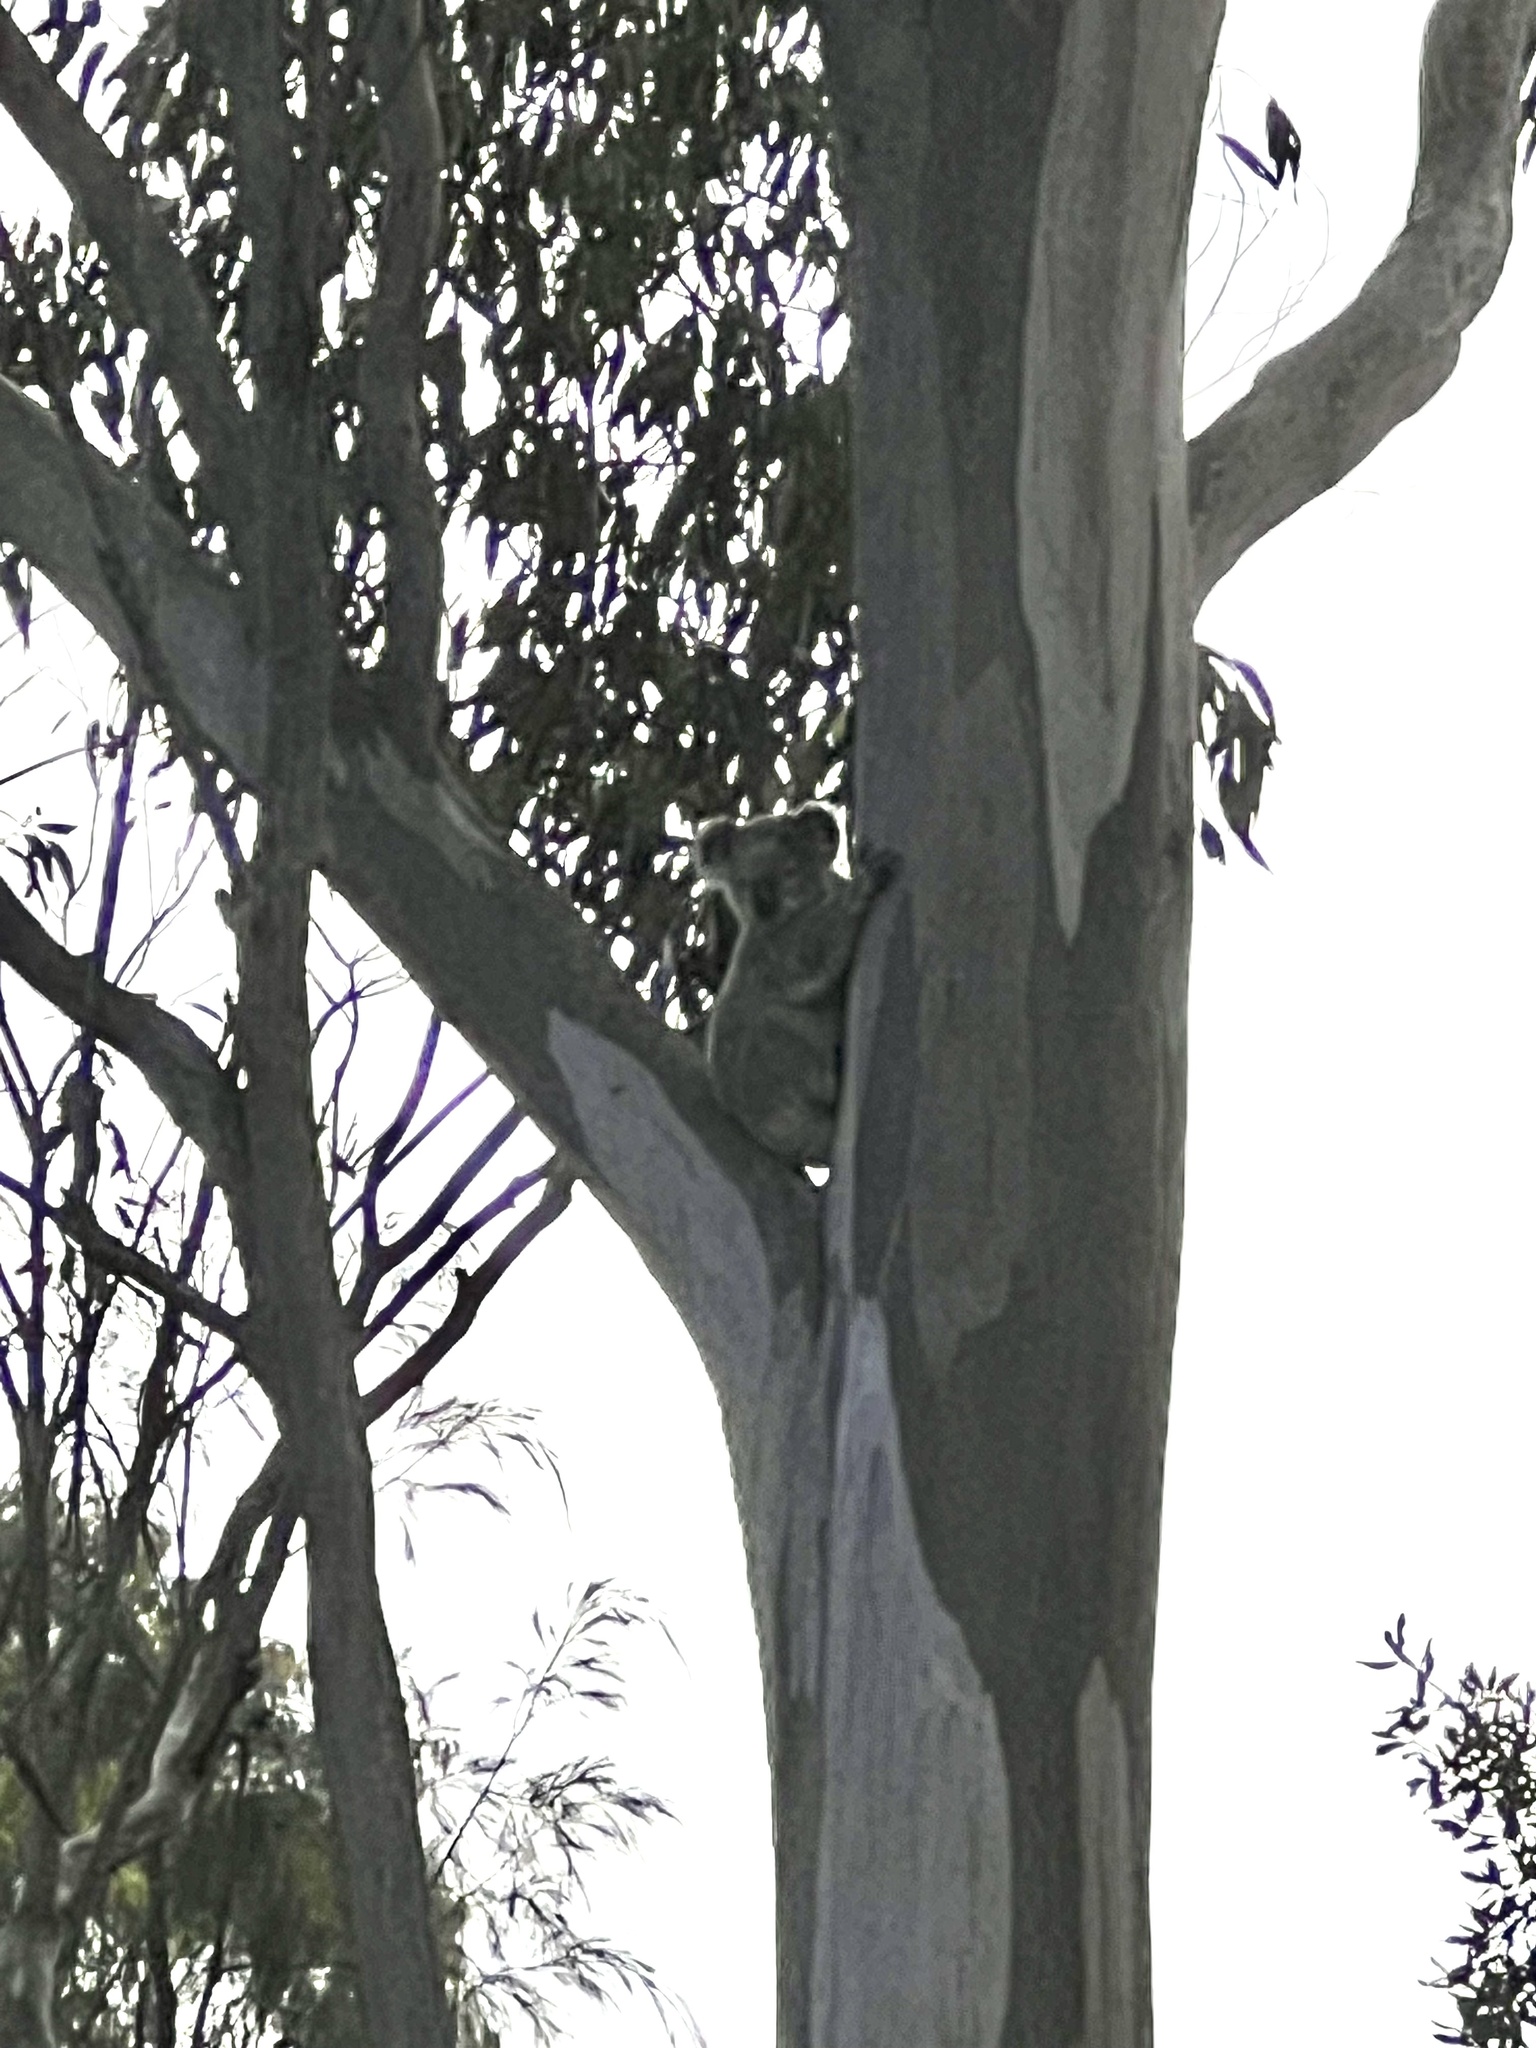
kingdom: Animalia
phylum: Chordata
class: Mammalia
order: Diprotodontia
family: Phascolarctidae
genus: Phascolarctos
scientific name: Phascolarctos cinereus
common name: Koala
